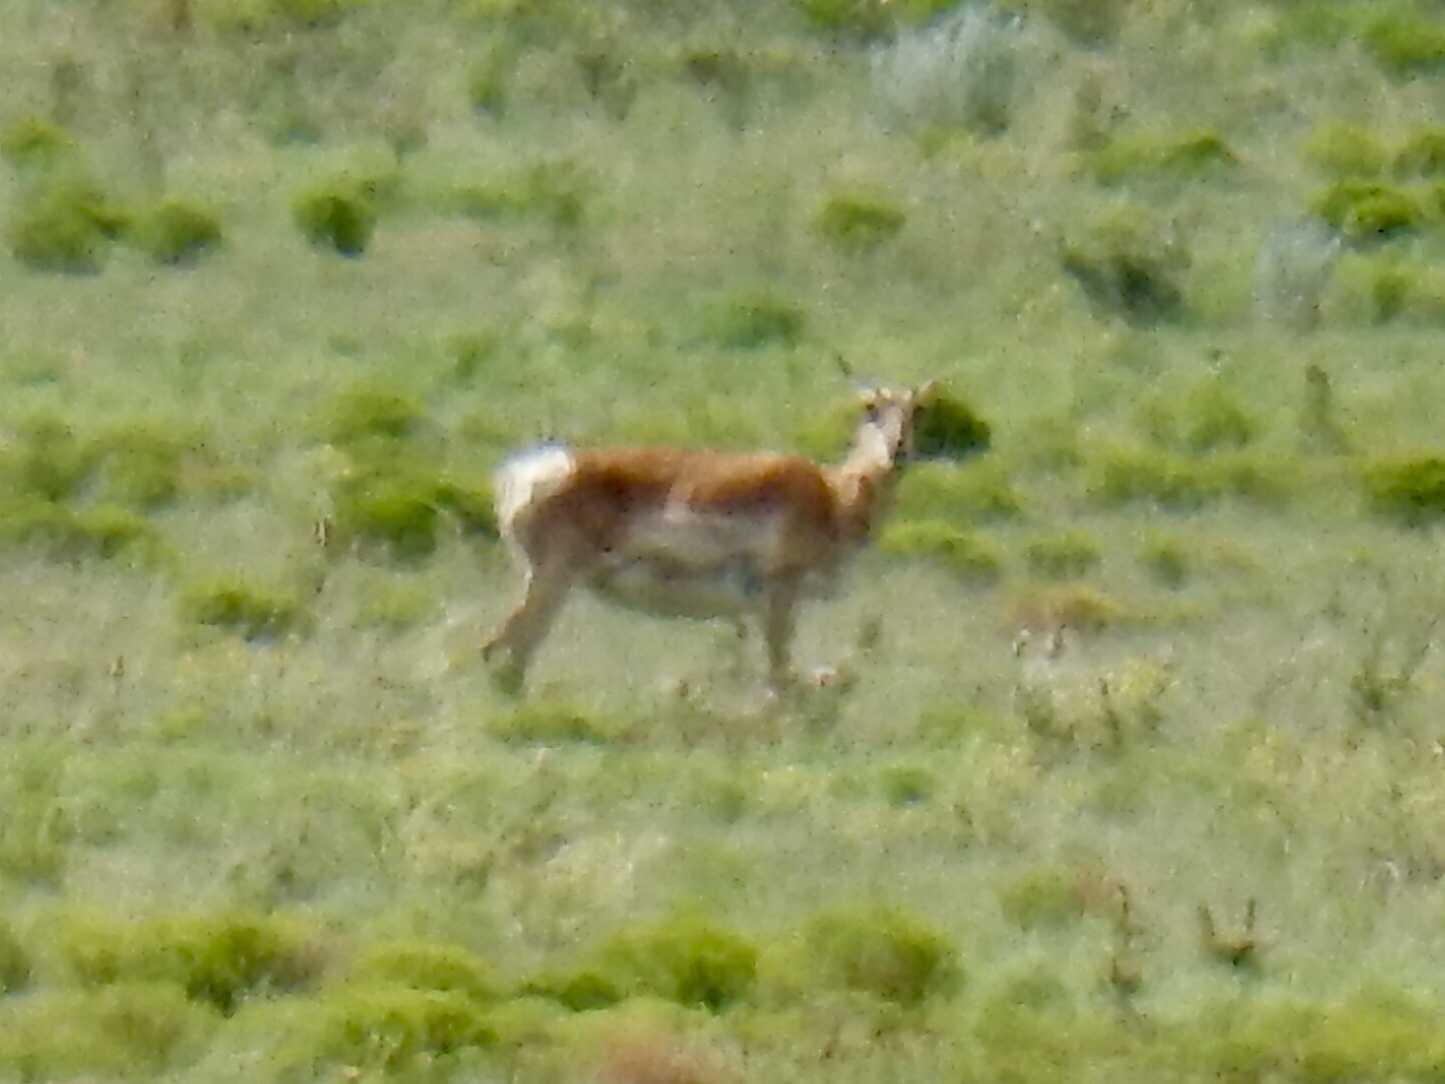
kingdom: Animalia
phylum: Chordata
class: Mammalia
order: Artiodactyla
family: Antilocapridae
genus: Antilocapra
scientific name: Antilocapra americana
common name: Pronghorn
